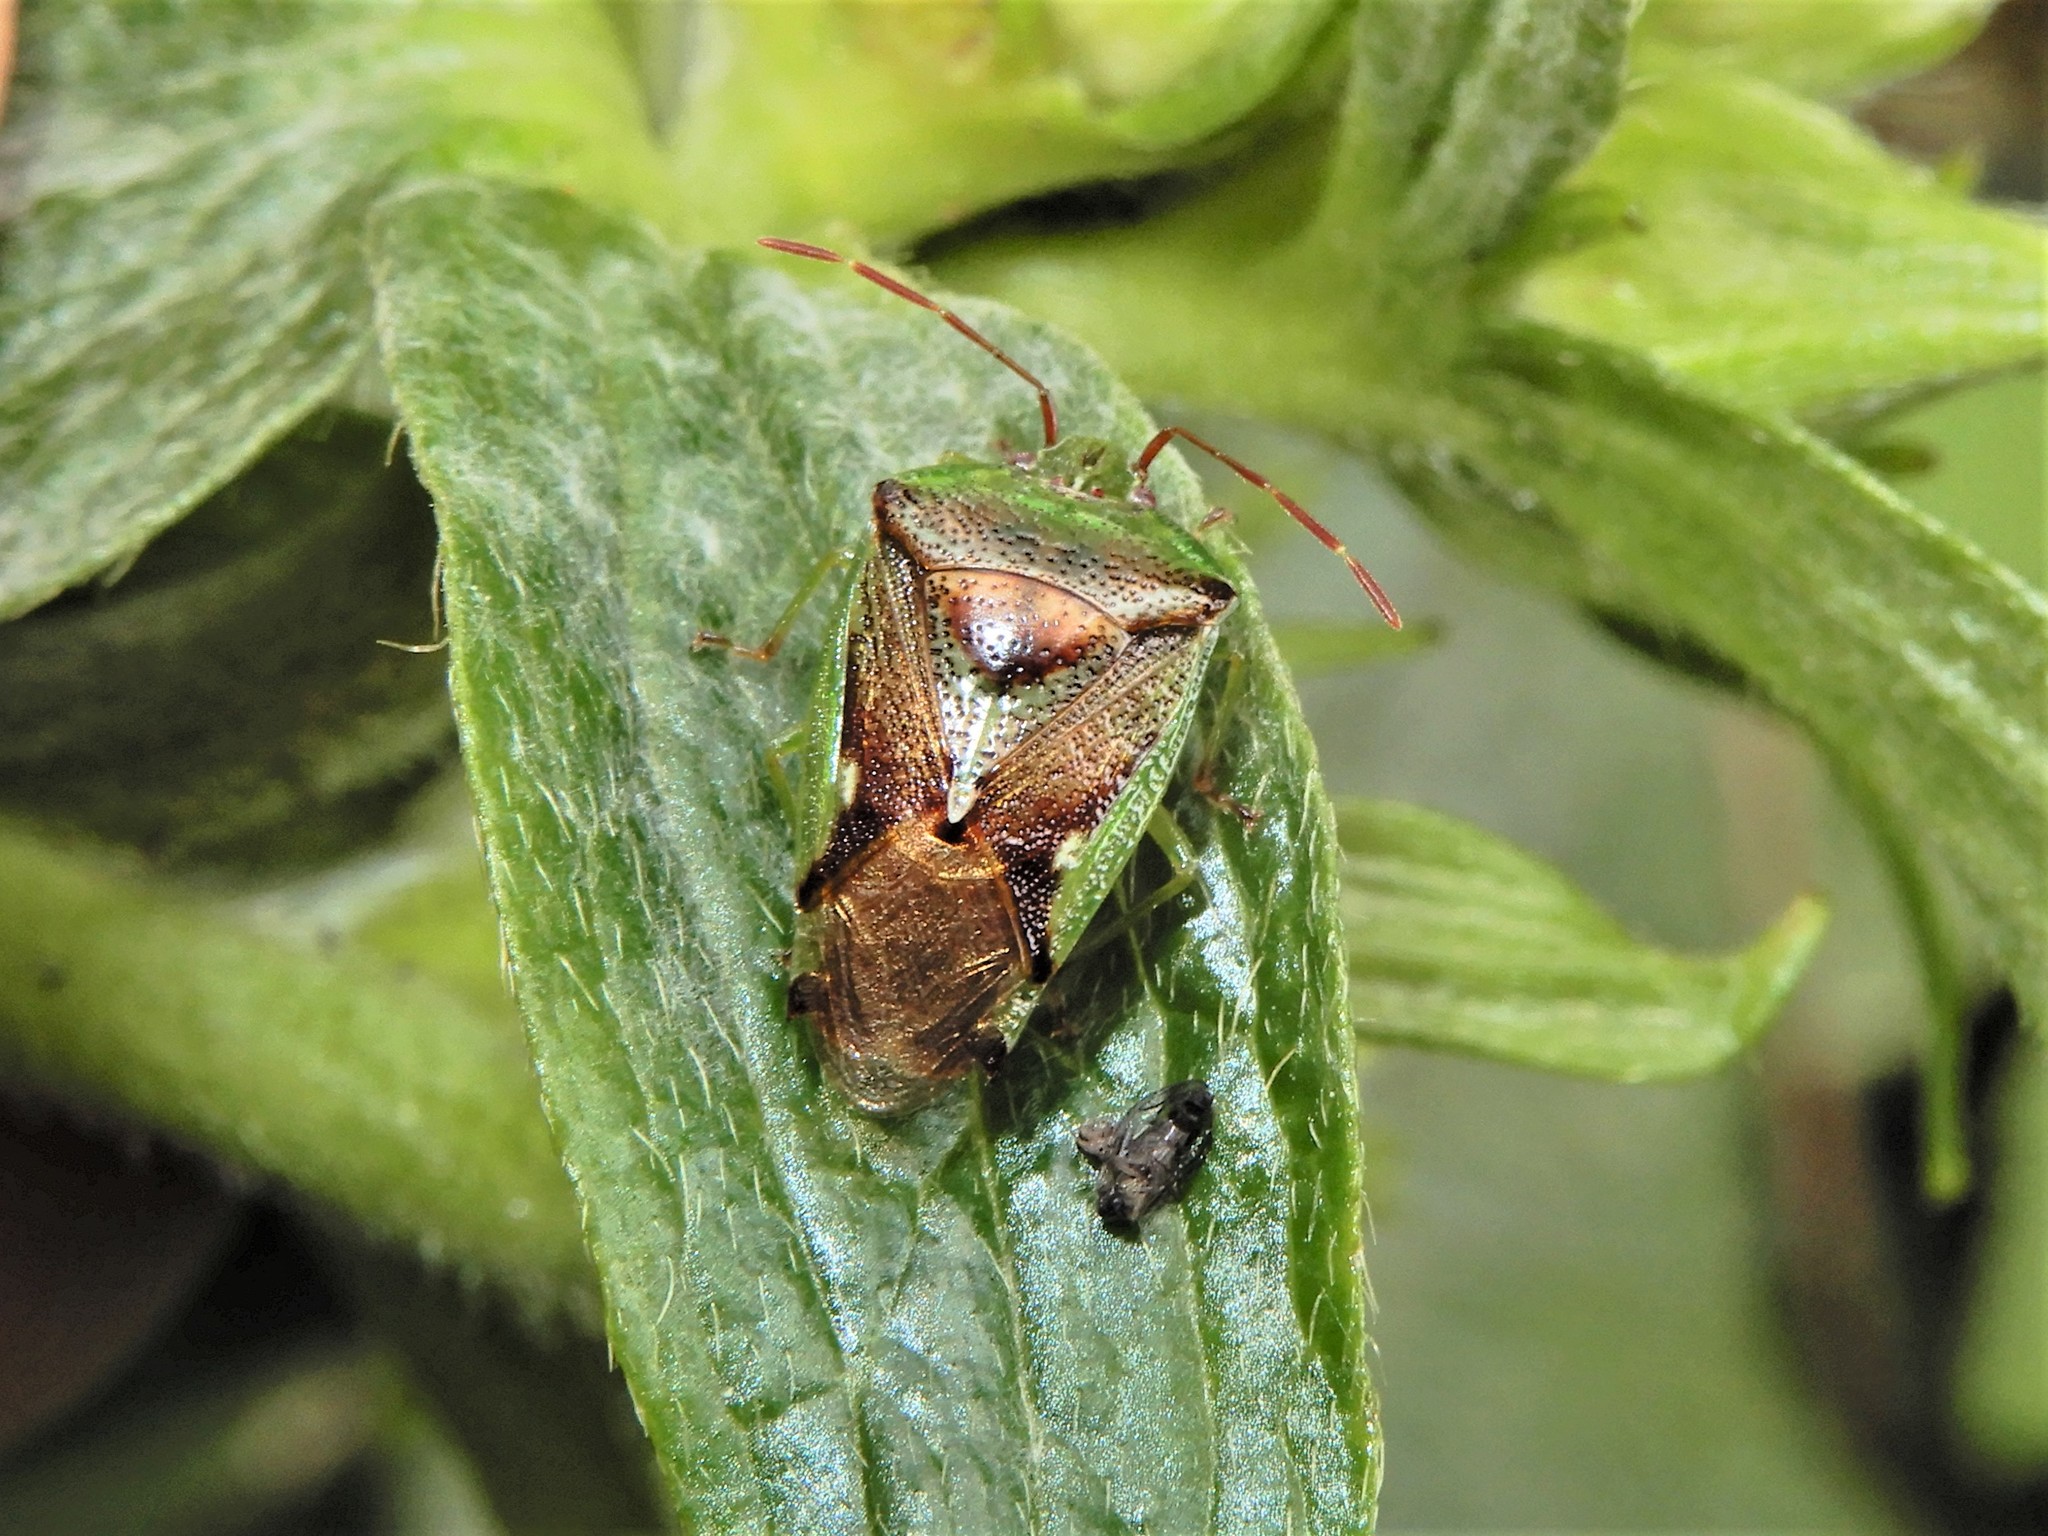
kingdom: Animalia
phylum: Arthropoda
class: Insecta
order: Hemiptera
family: Acanthosomatidae
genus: Oncacontias
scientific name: Oncacontias vittatus
